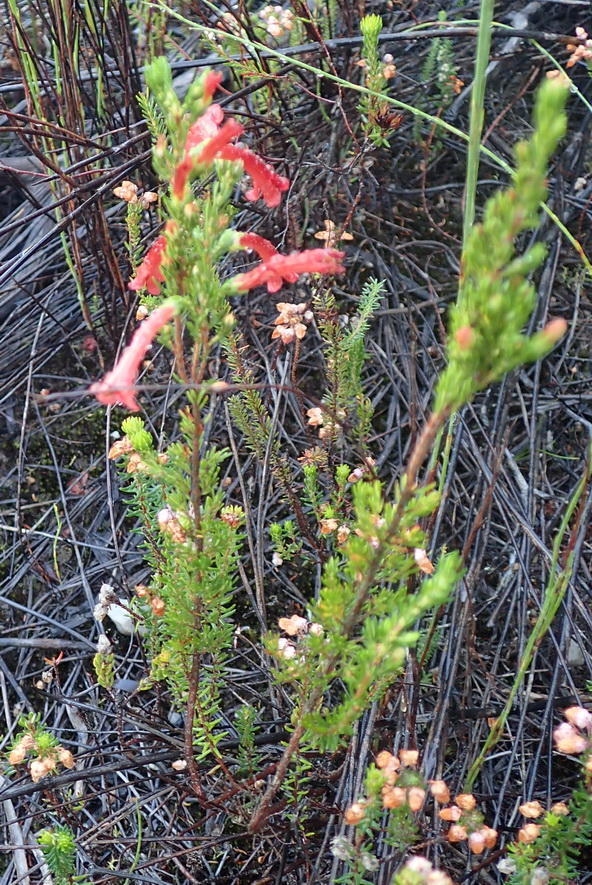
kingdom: Plantae
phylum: Tracheophyta
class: Magnoliopsida
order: Ericales
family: Ericaceae
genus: Erica
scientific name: Erica curviflora
